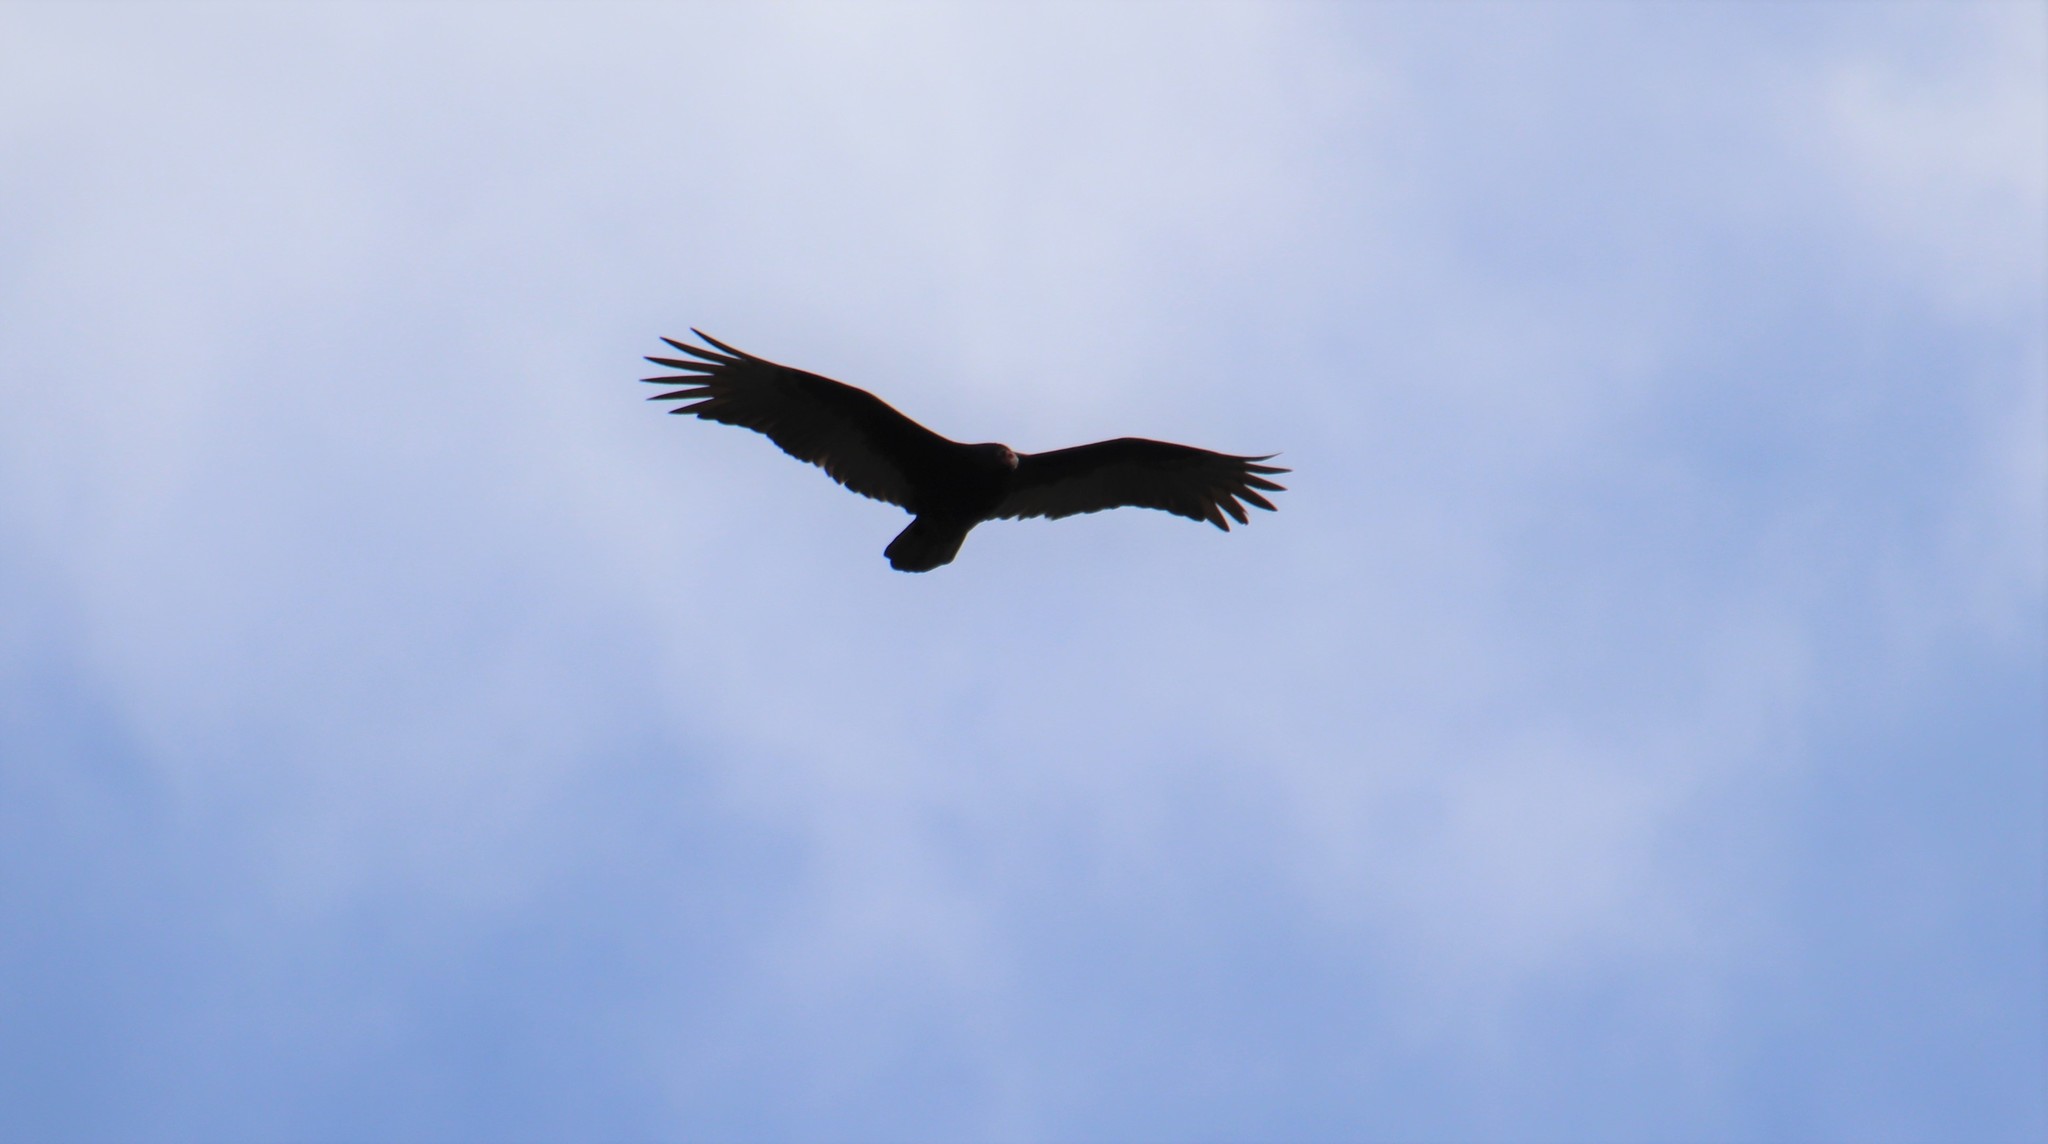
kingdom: Animalia
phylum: Chordata
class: Aves
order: Accipitriformes
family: Cathartidae
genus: Cathartes
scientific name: Cathartes aura
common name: Turkey vulture
